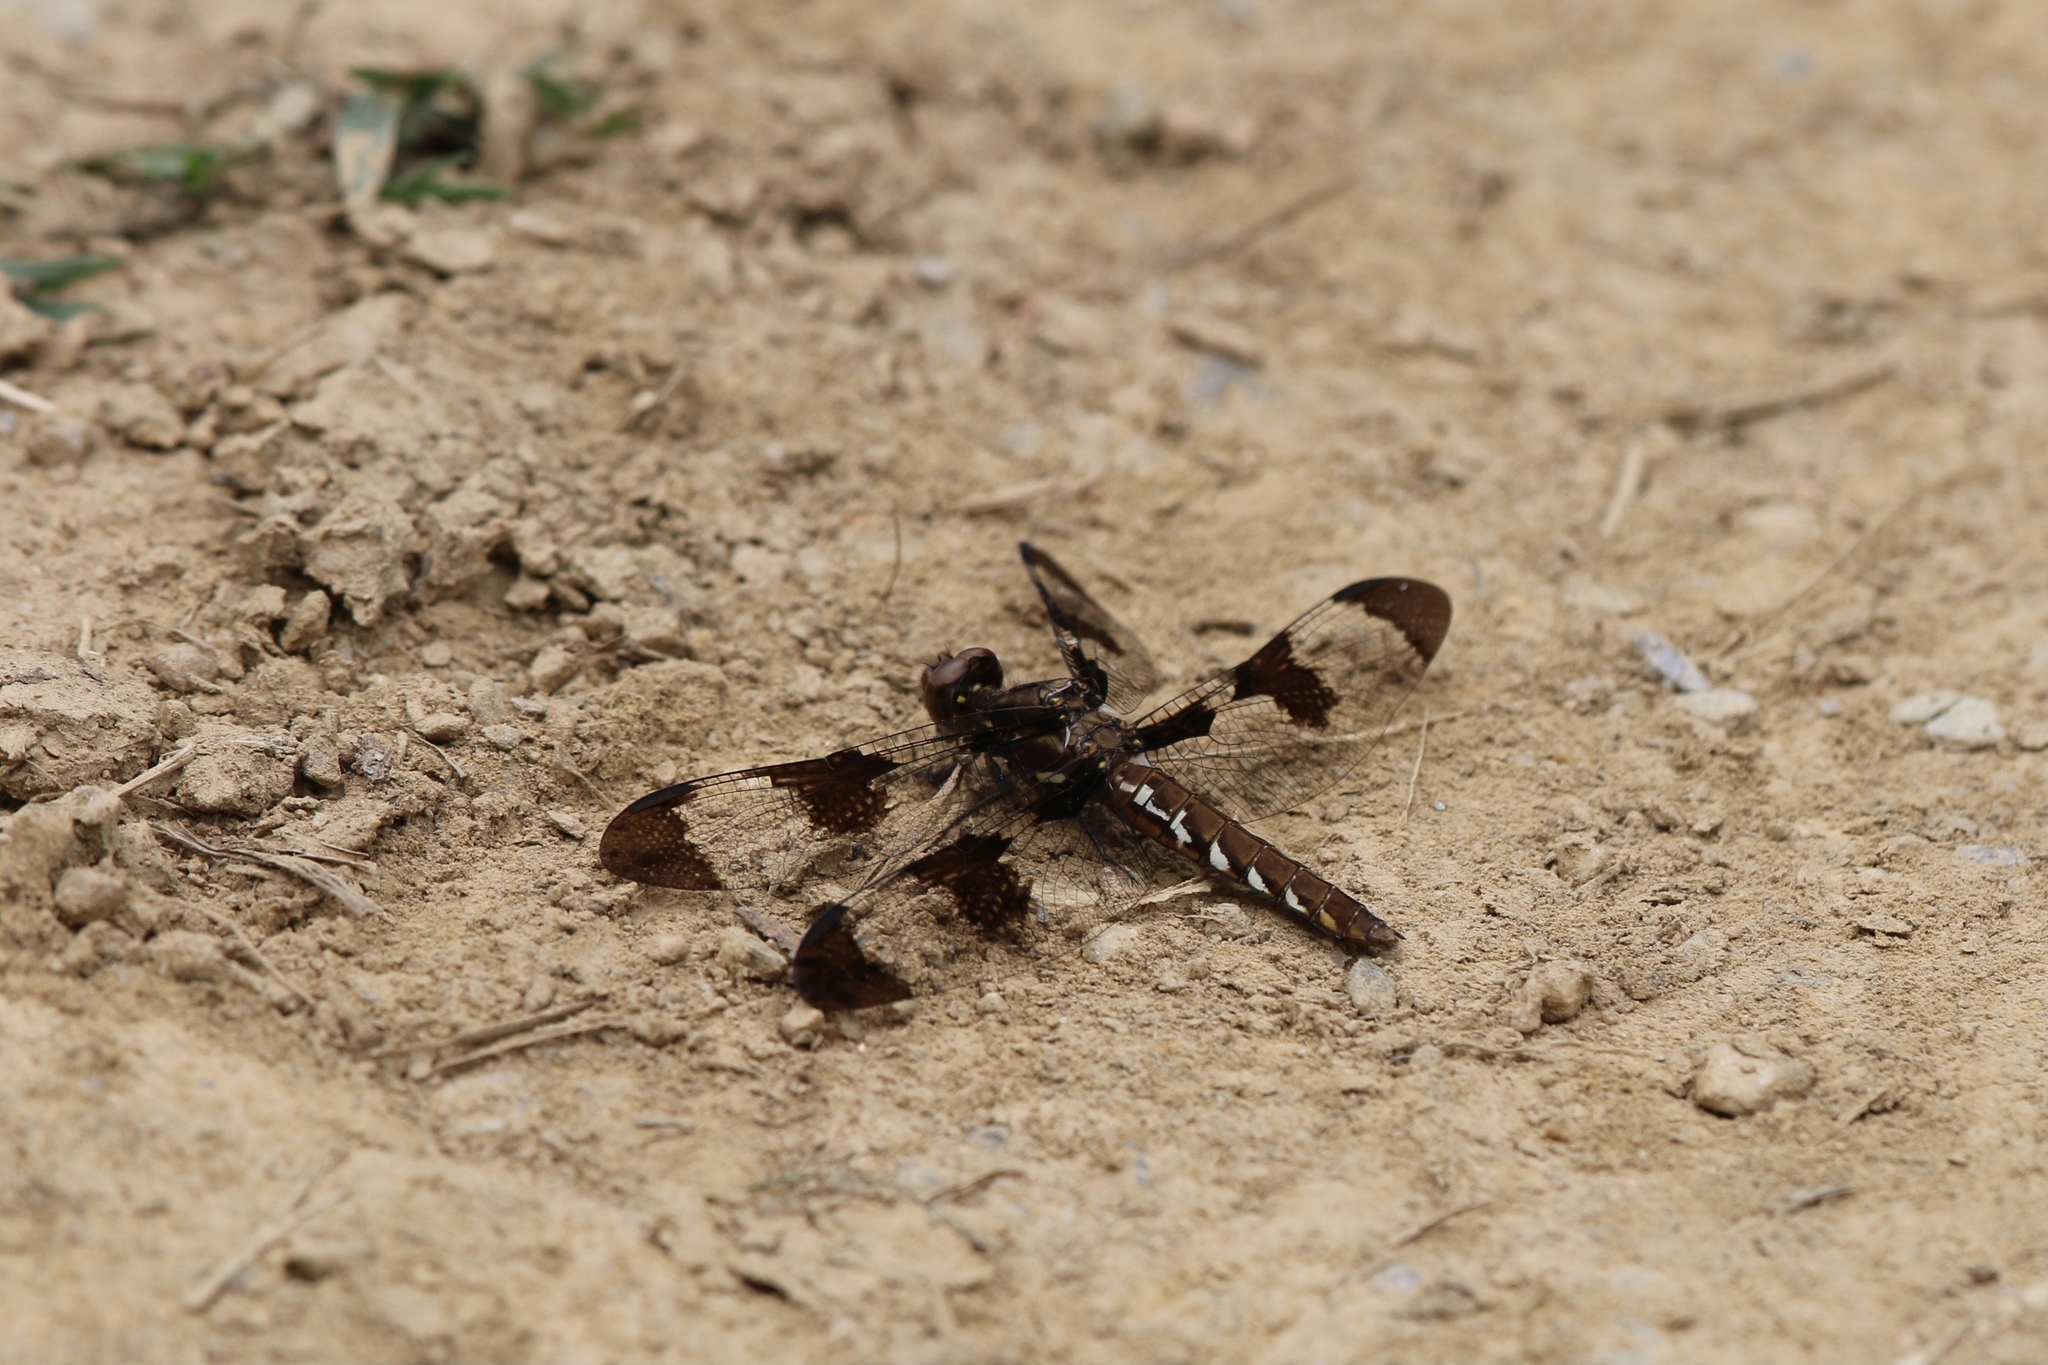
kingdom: Animalia
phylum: Arthropoda
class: Insecta
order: Odonata
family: Libellulidae
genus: Plathemis
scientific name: Plathemis lydia
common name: Common whitetail
